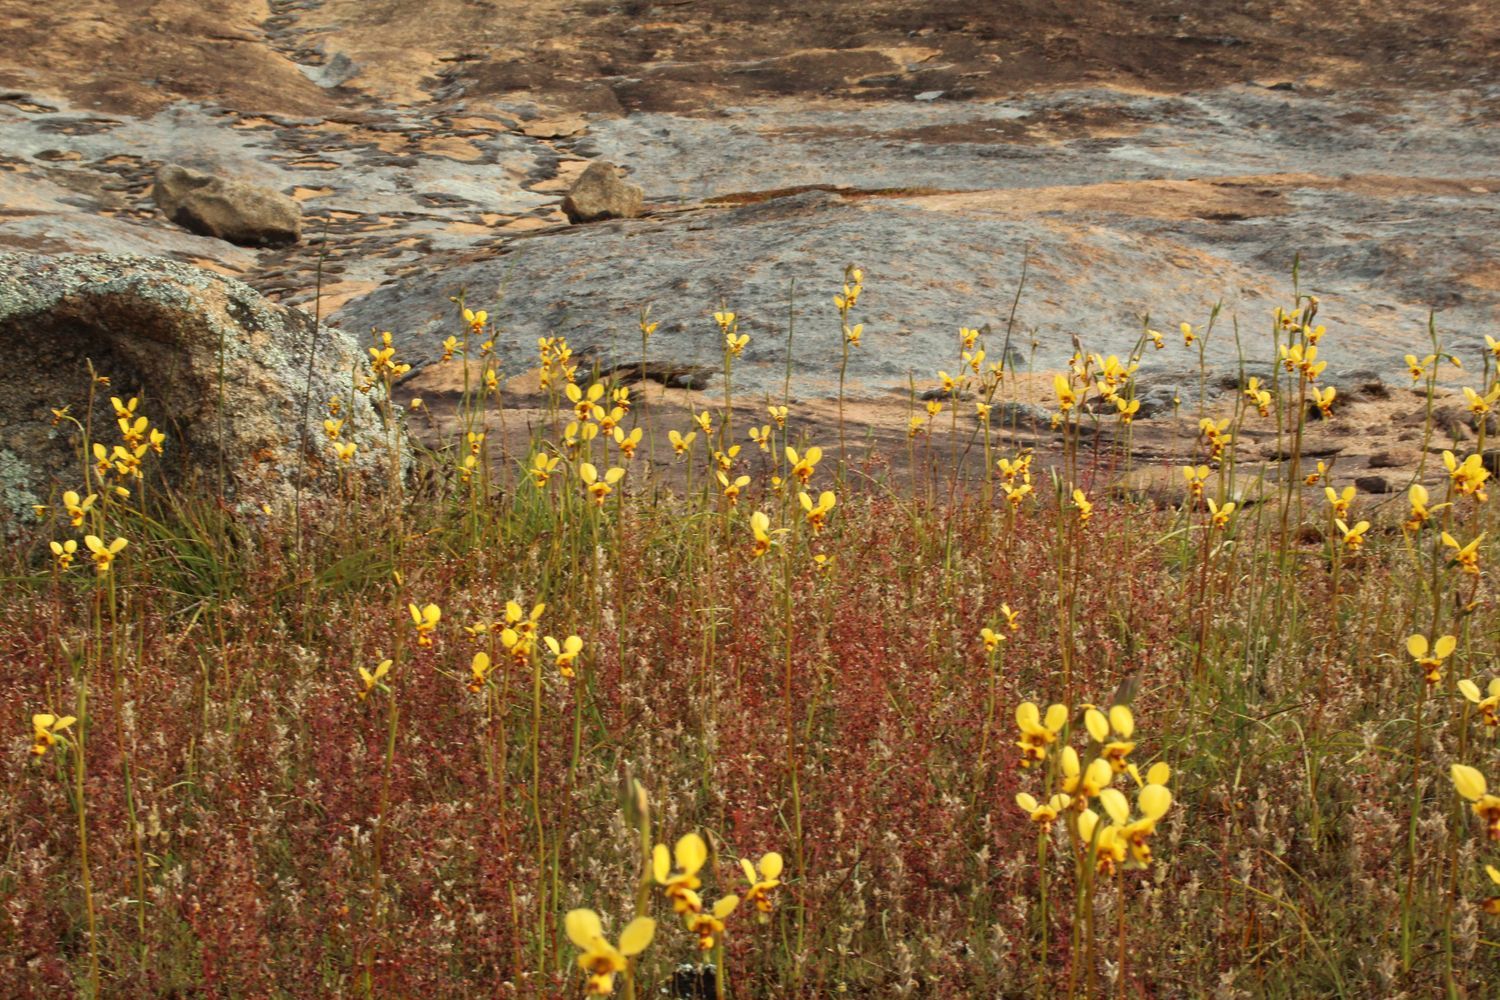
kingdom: Plantae
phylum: Tracheophyta
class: Liliopsida
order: Asparagales
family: Orchidaceae
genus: Diuris
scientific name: Diuris picta
